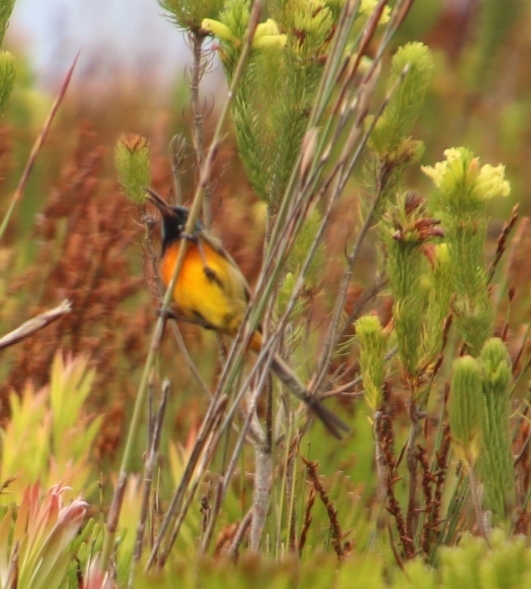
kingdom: Animalia
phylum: Chordata
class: Aves
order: Passeriformes
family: Nectariniidae
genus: Anthobaphes
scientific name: Anthobaphes violacea
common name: Orange-breasted sunbird
